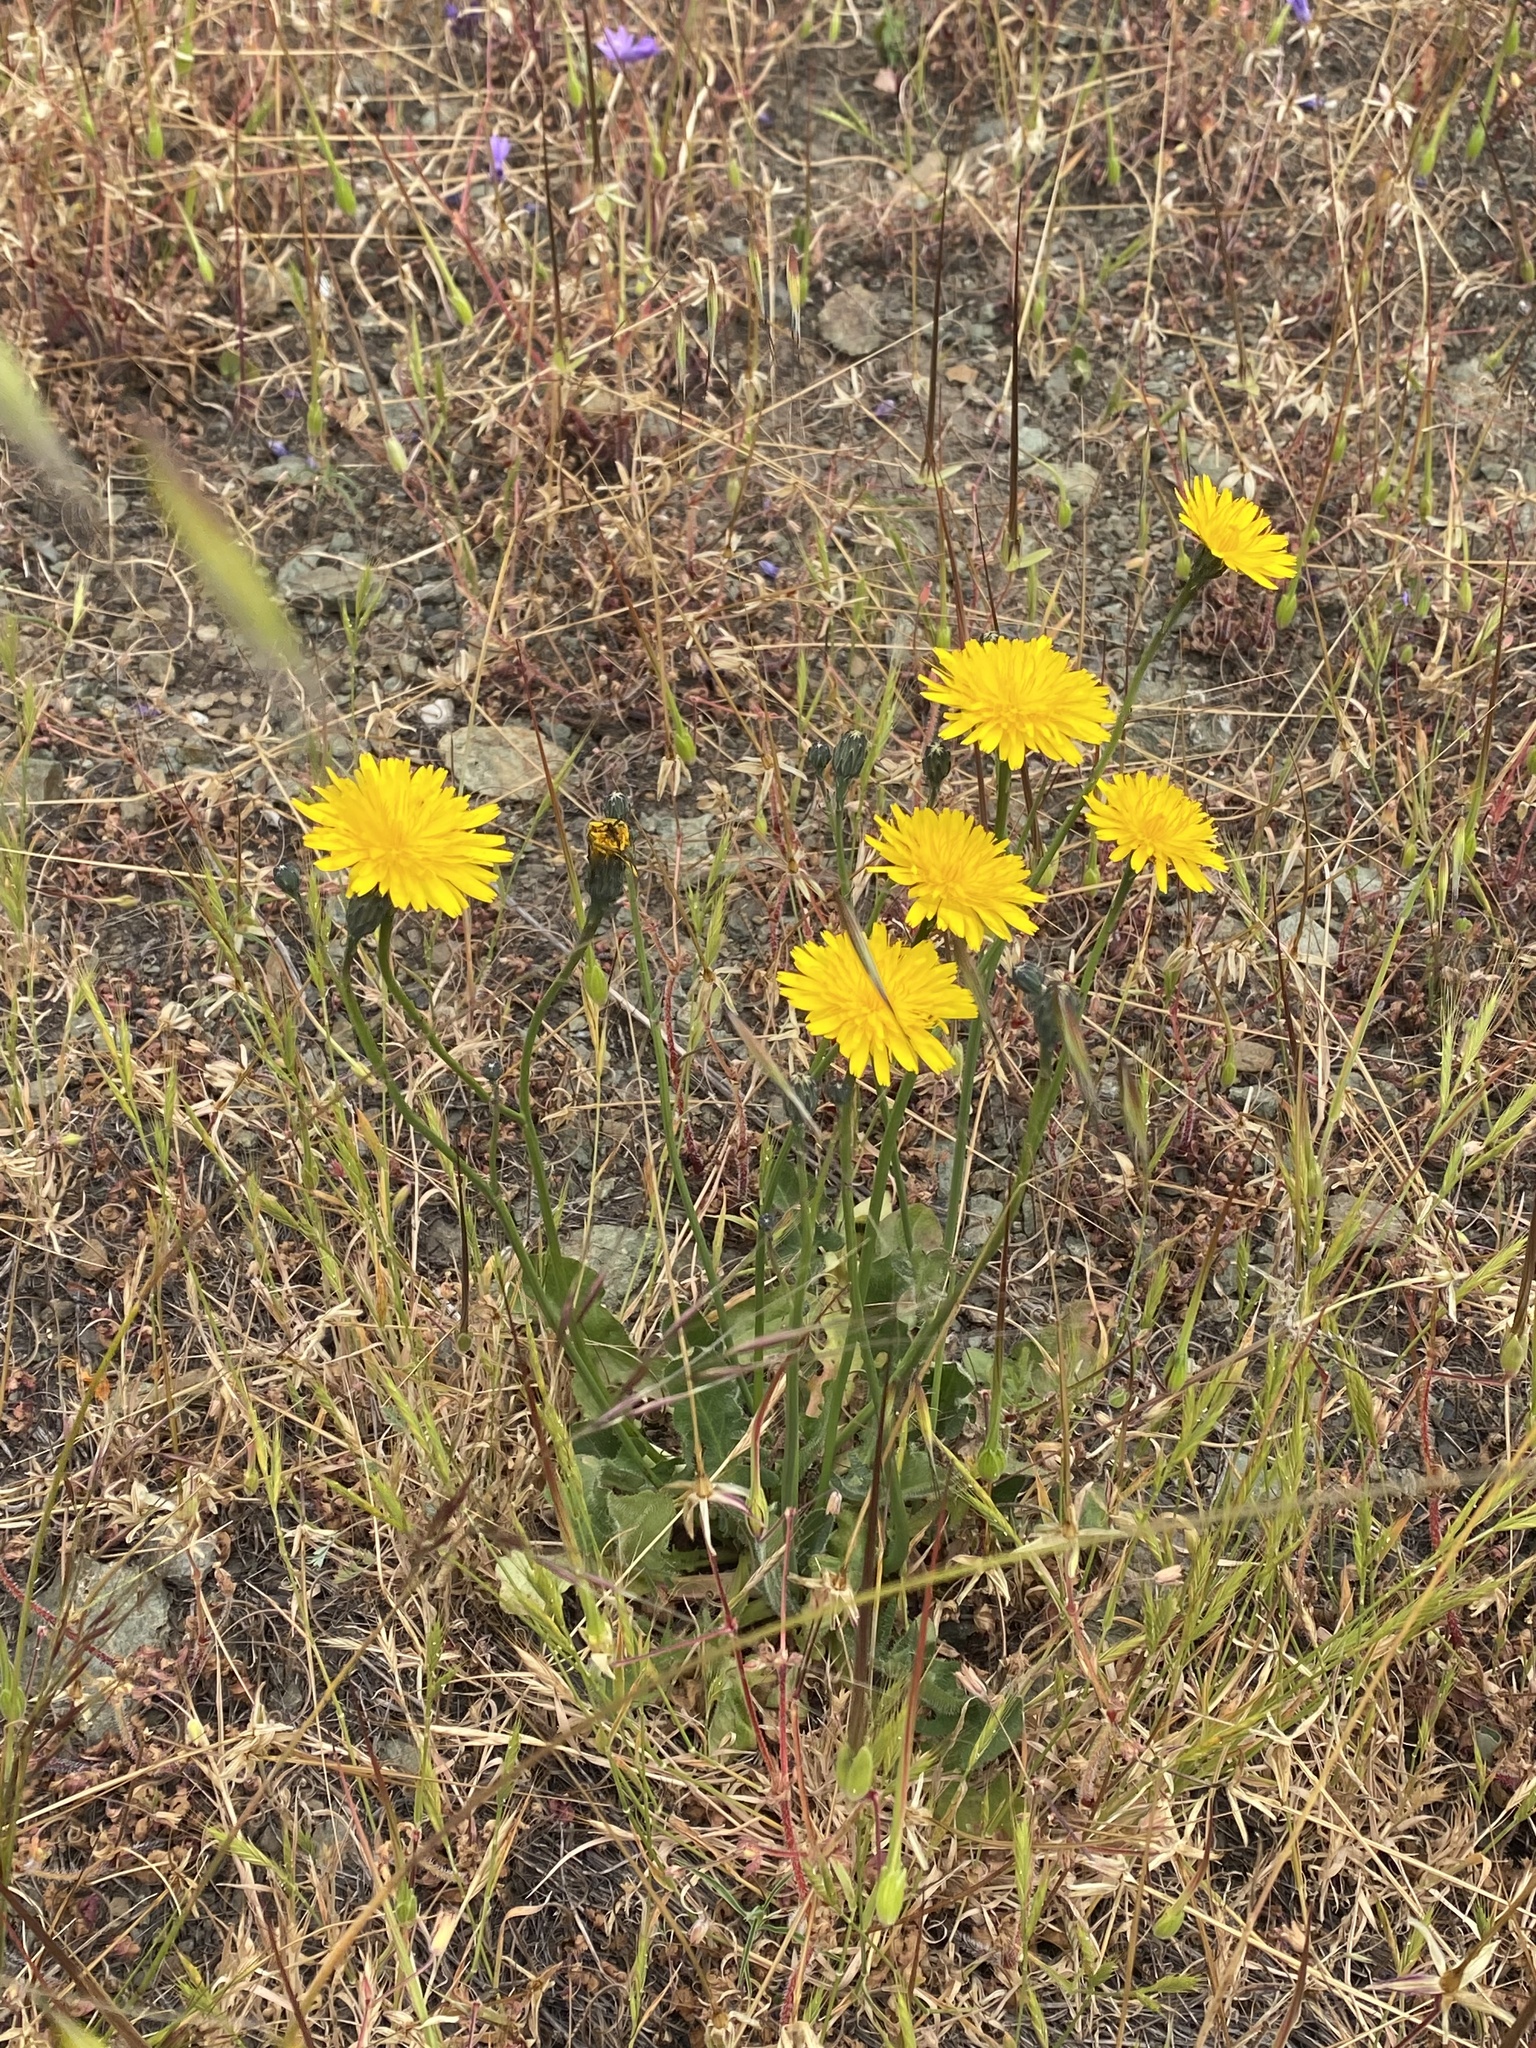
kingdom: Plantae
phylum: Tracheophyta
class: Magnoliopsida
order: Asterales
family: Asteraceae
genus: Hypochaeris
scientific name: Hypochaeris radicata
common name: Flatweed
